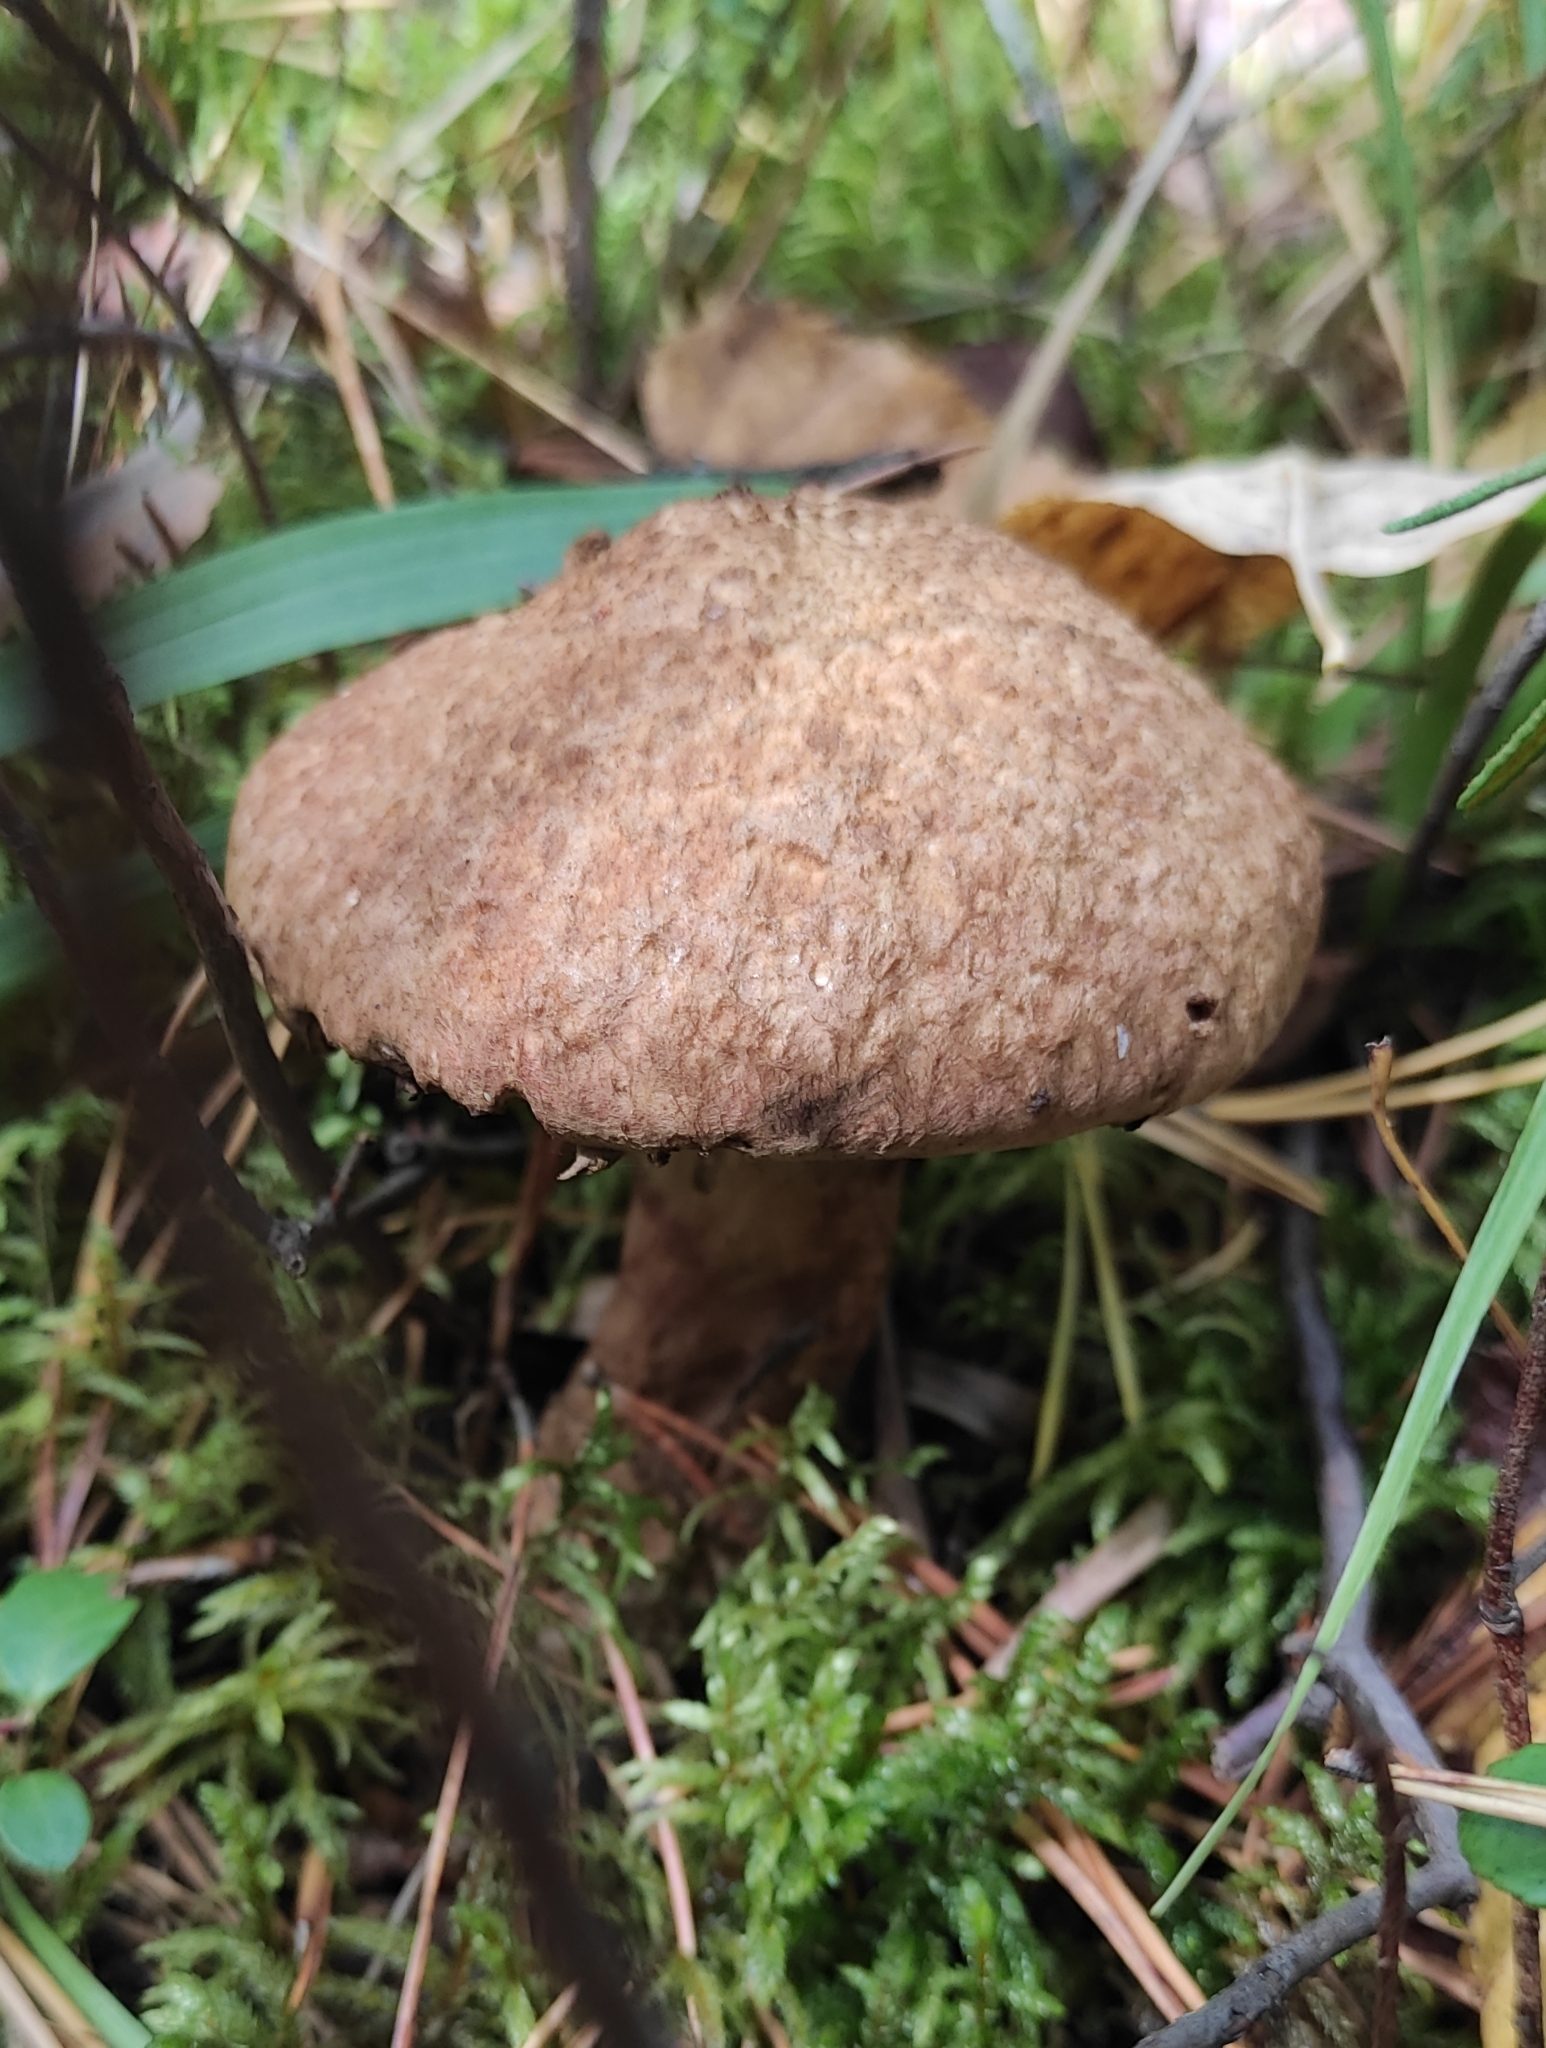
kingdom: Fungi
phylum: Basidiomycota
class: Agaricomycetes
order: Boletales
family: Suillaceae
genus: Suillus
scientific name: Suillus spraguei
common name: Painted suillus
